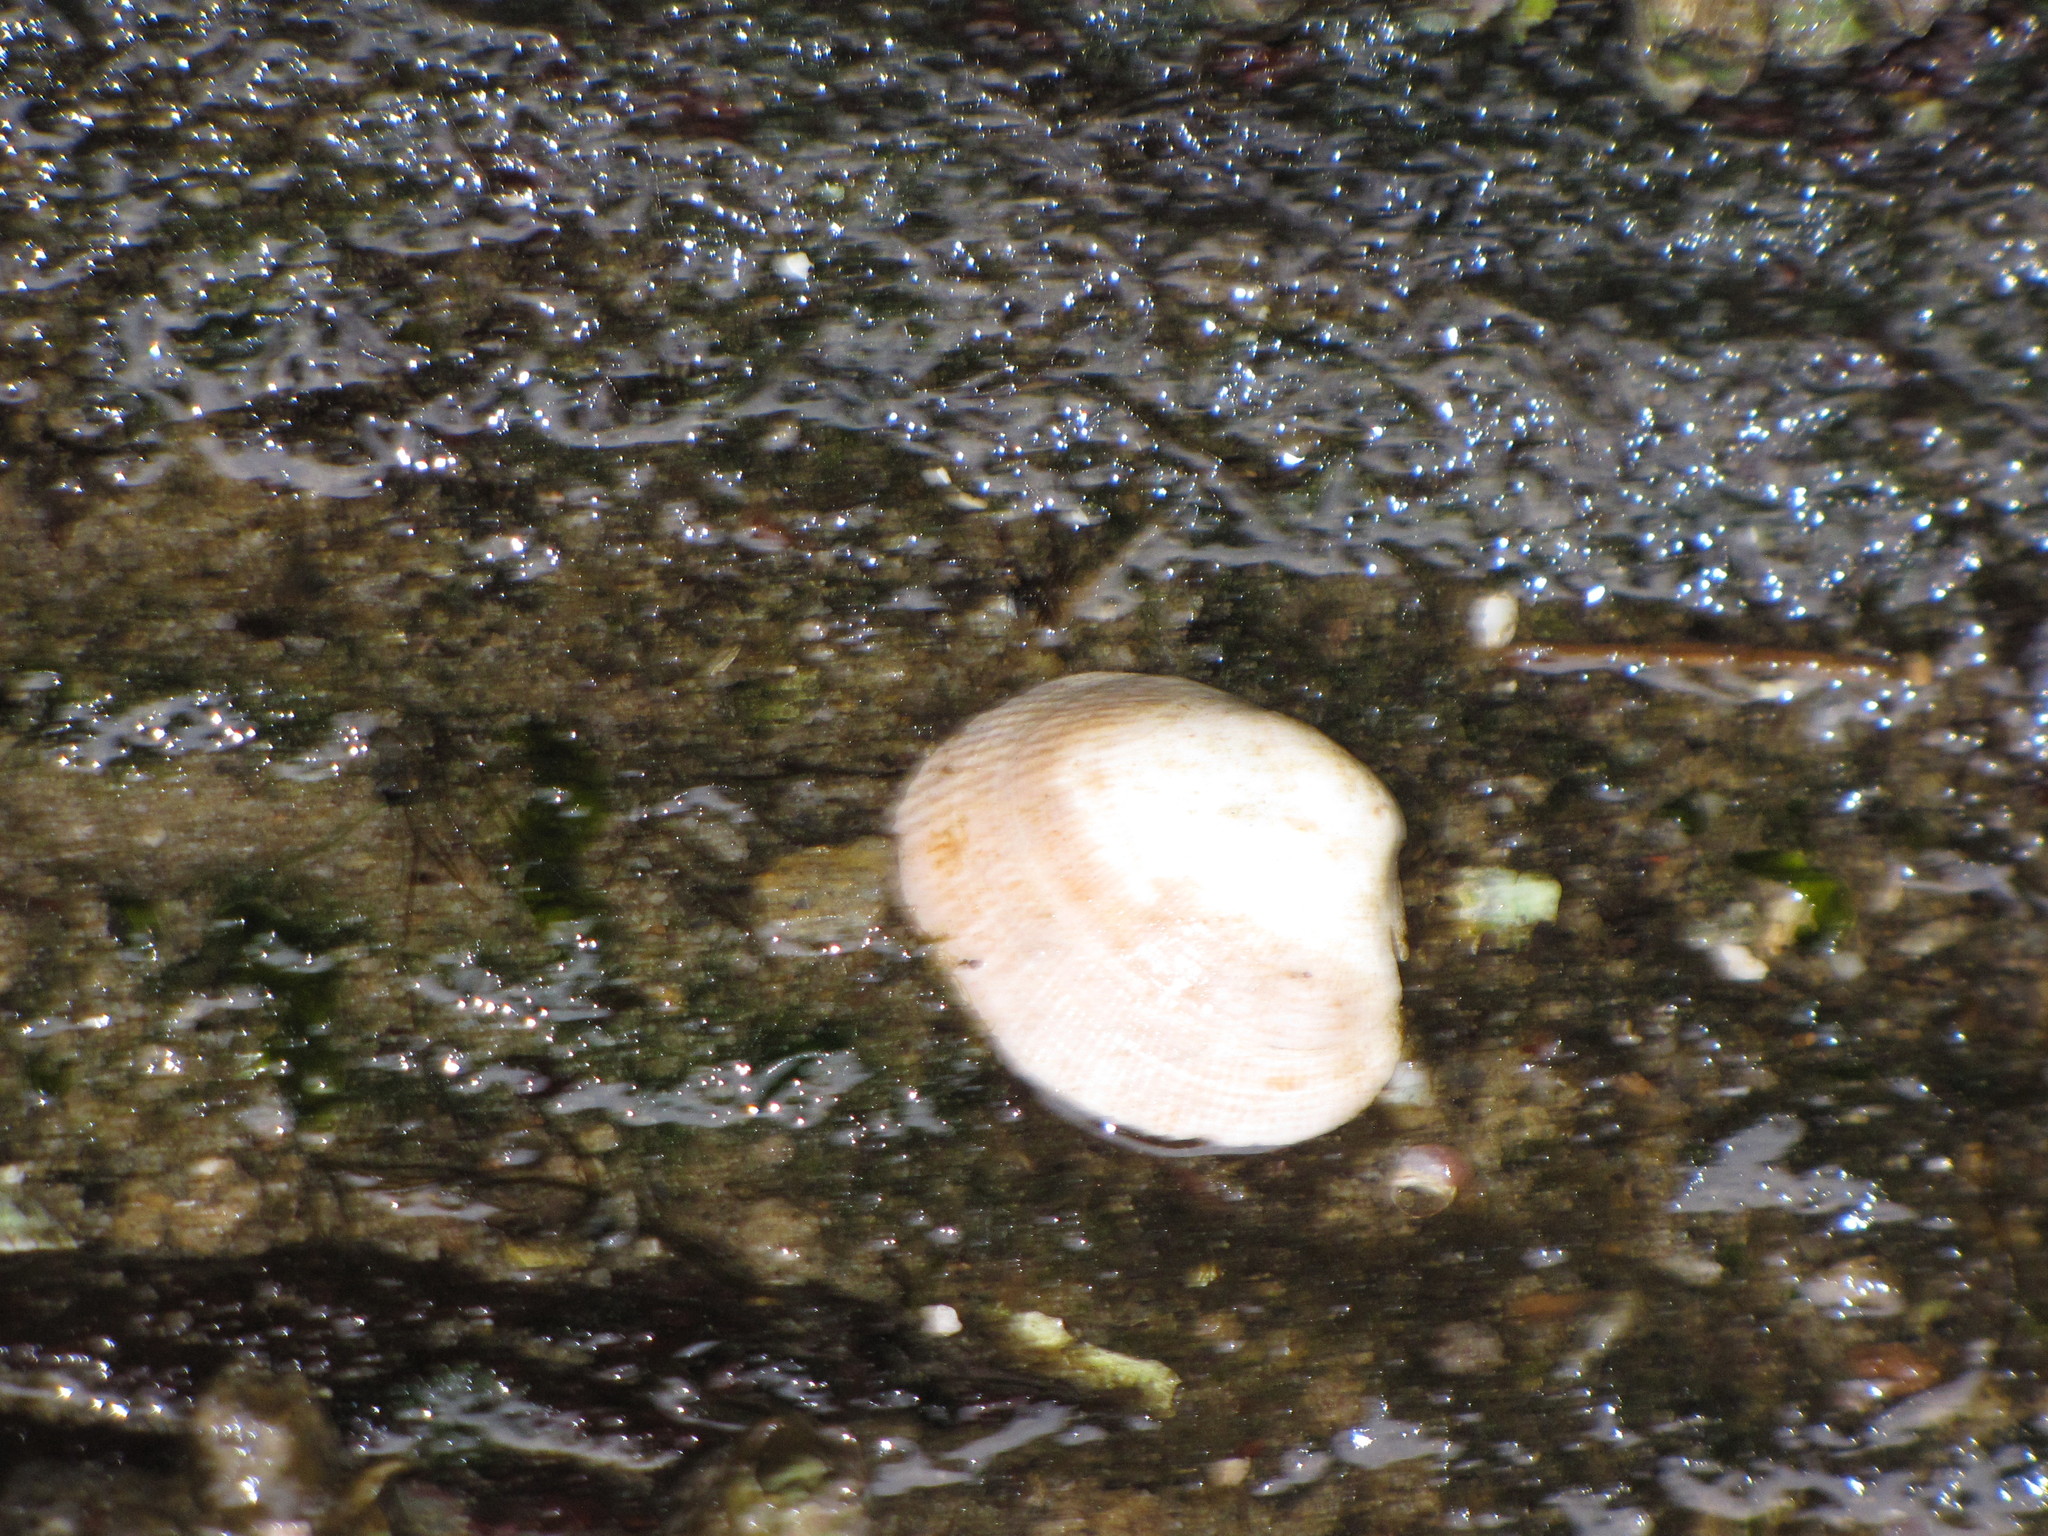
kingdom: Animalia
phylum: Mollusca
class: Bivalvia
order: Venerida
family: Veneridae
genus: Ruditapes
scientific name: Ruditapes philippinarum
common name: Manila clam
